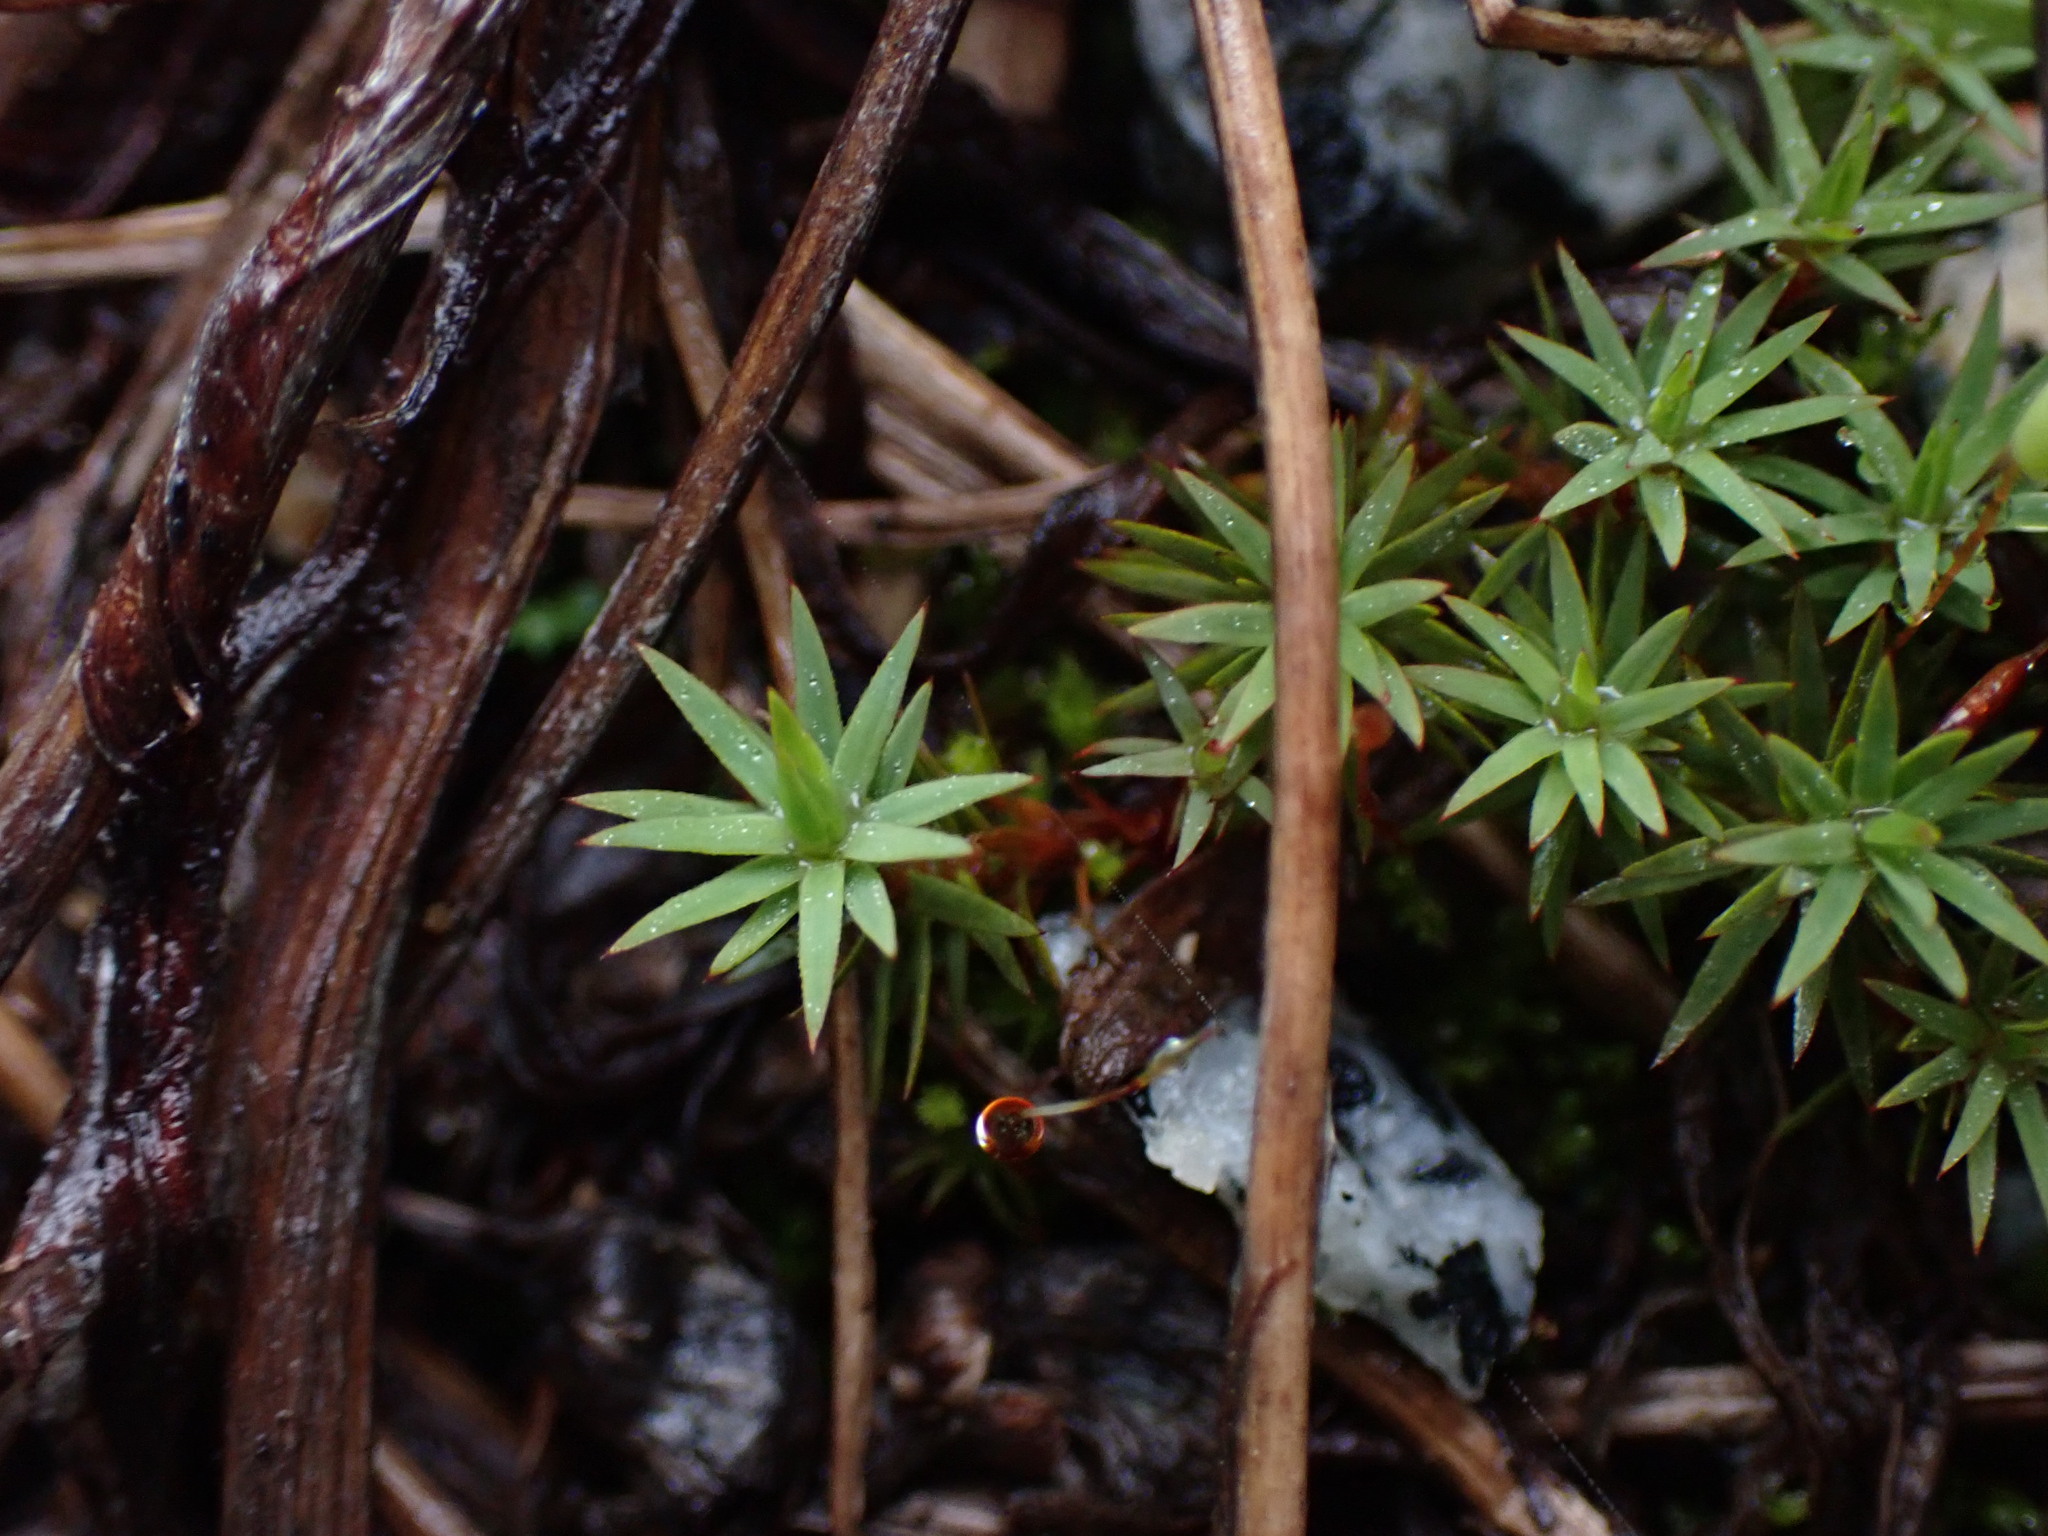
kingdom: Plantae
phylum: Bryophyta
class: Polytrichopsida
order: Polytrichales
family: Polytrichaceae
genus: Pogonatum
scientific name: Pogonatum urnigerum
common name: Urn hair moss
